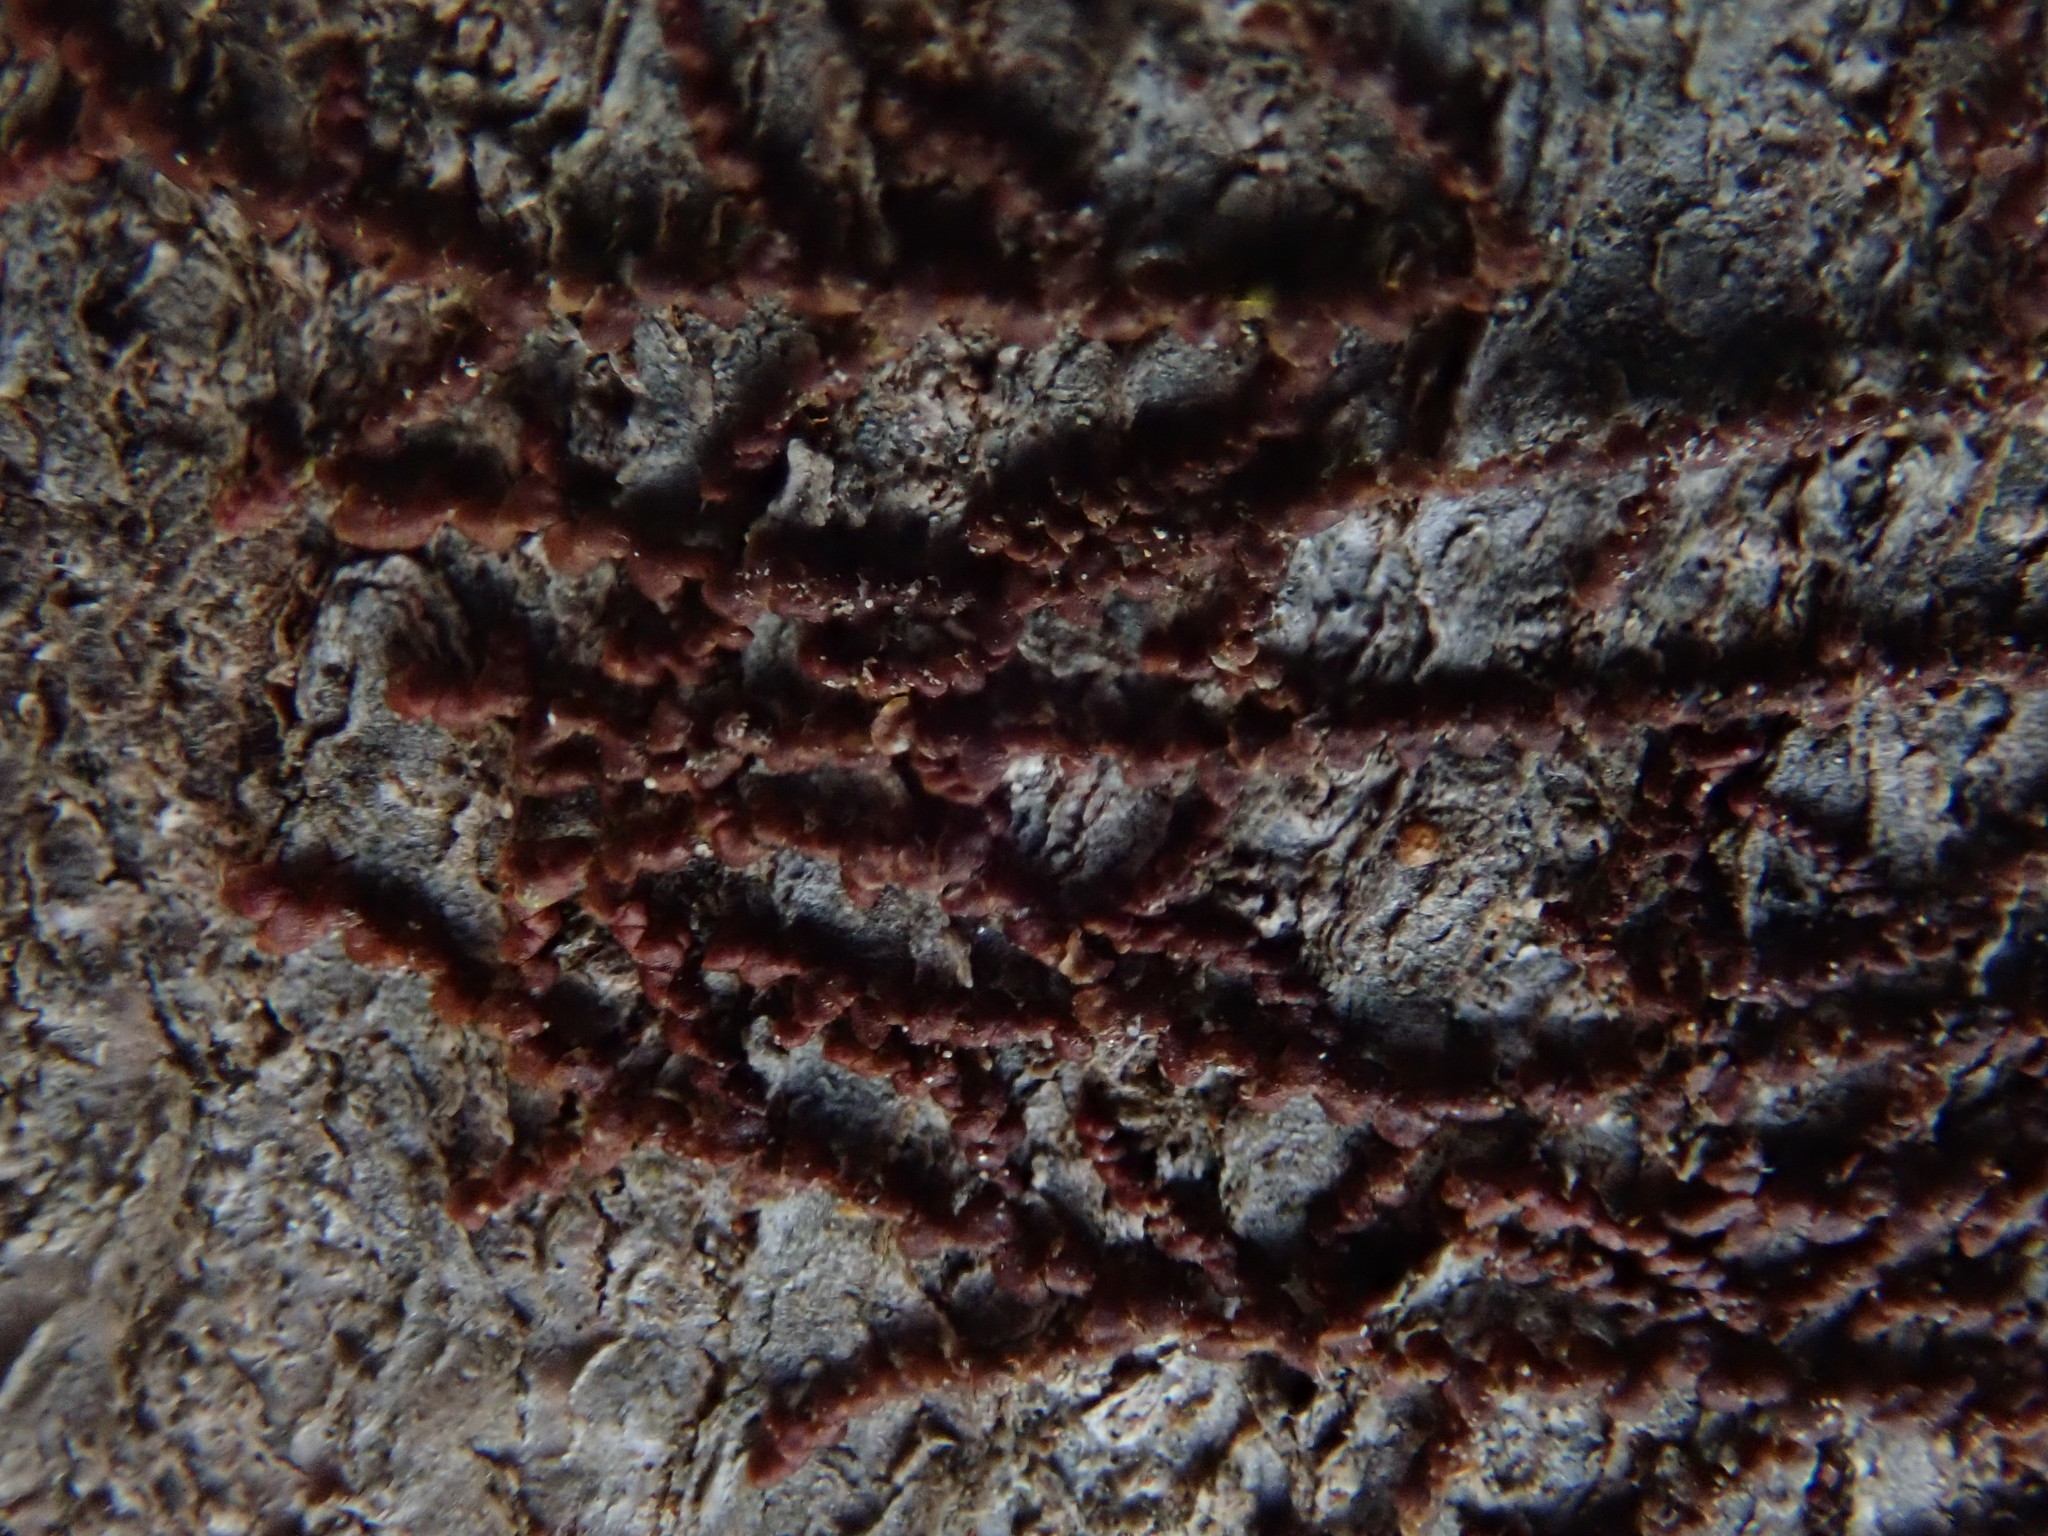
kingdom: Plantae
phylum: Marchantiophyta
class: Jungermanniopsida
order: Porellales
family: Frullaniaceae
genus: Frullania
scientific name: Frullania
